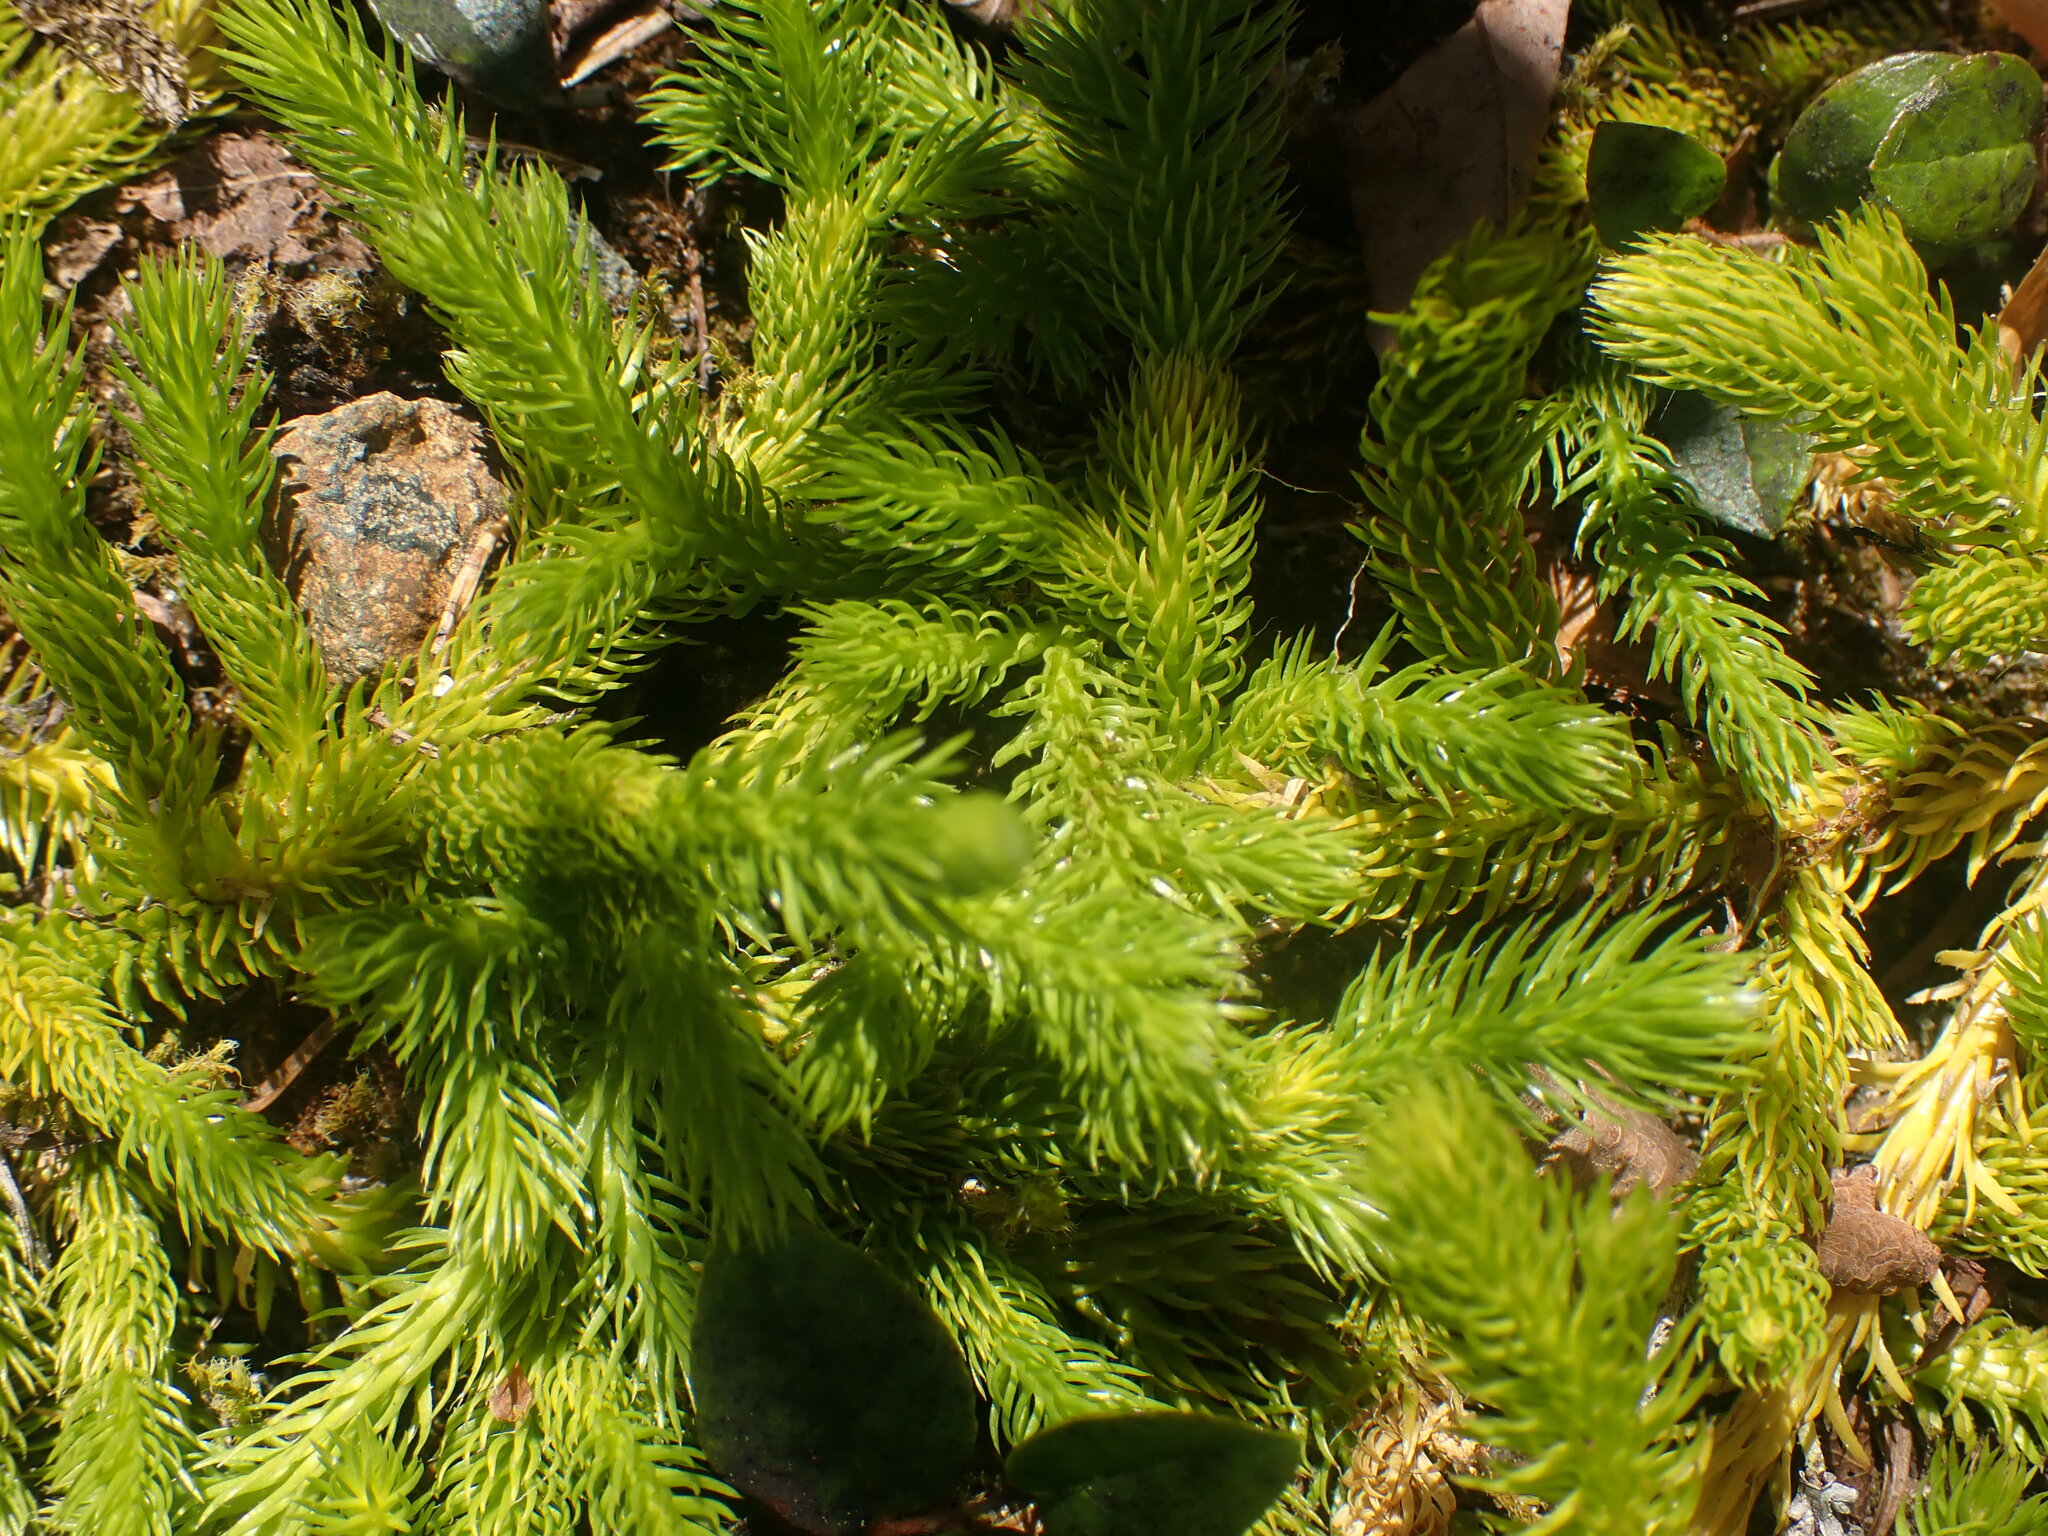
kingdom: Plantae
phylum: Tracheophyta
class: Lycopodiopsida
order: Lycopodiales
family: Lycopodiaceae
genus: Lycopodium
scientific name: Lycopodium clavatum
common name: Stag's-horn clubmoss
